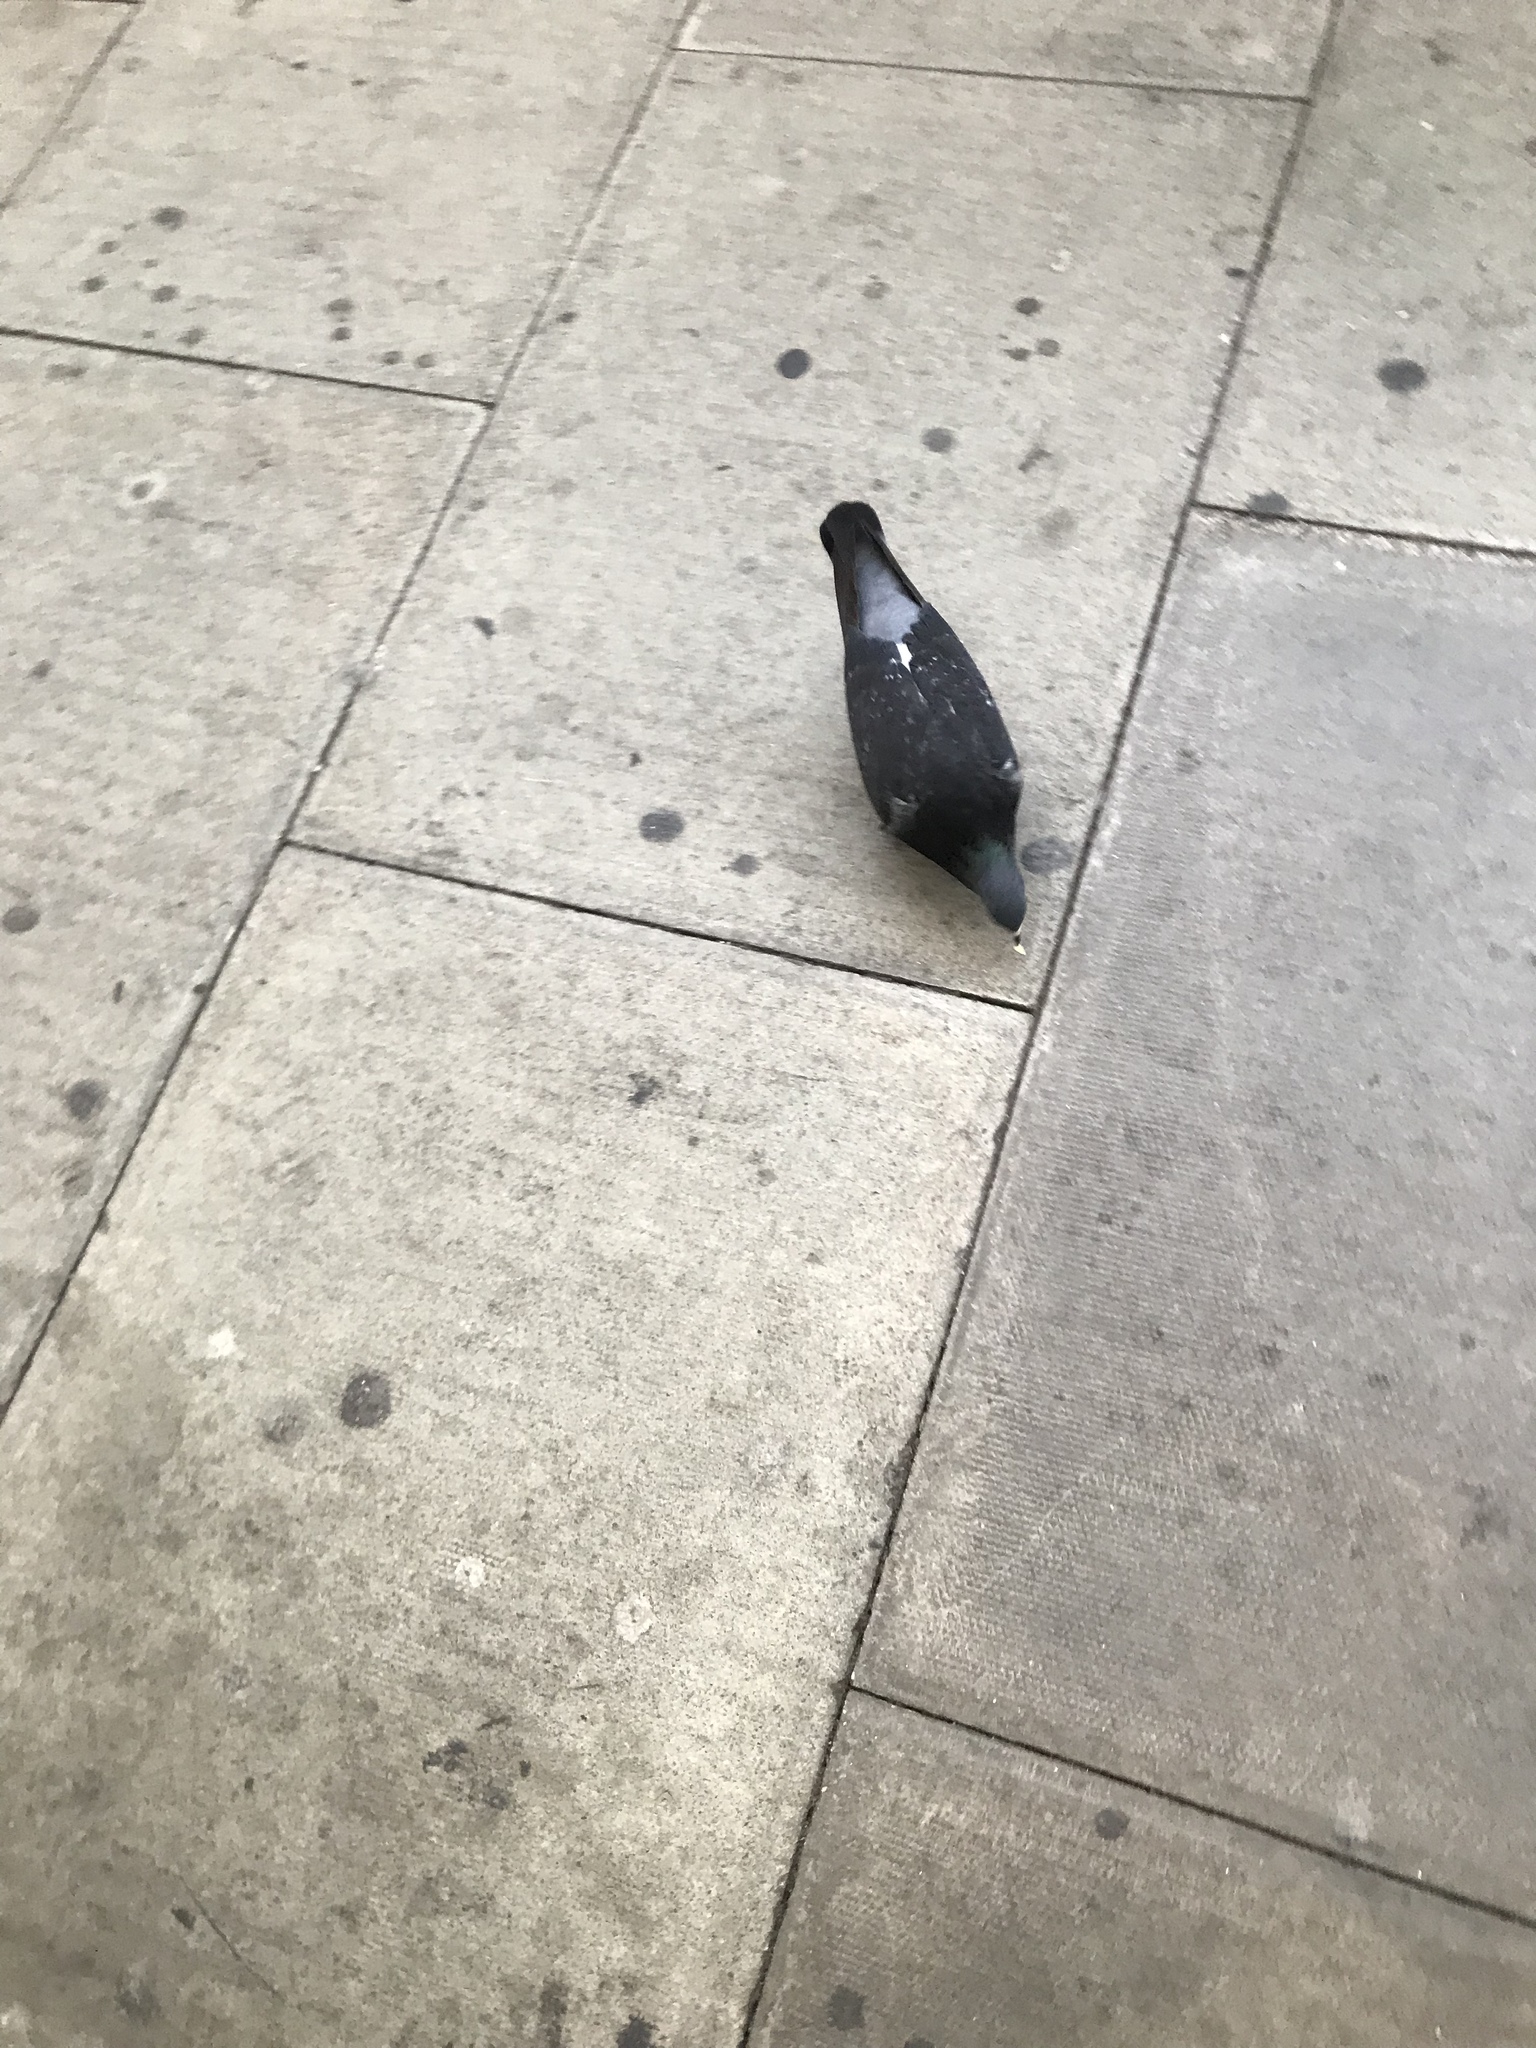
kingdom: Animalia
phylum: Chordata
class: Aves
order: Columbiformes
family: Columbidae
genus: Columba
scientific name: Columba livia
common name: Rock pigeon
